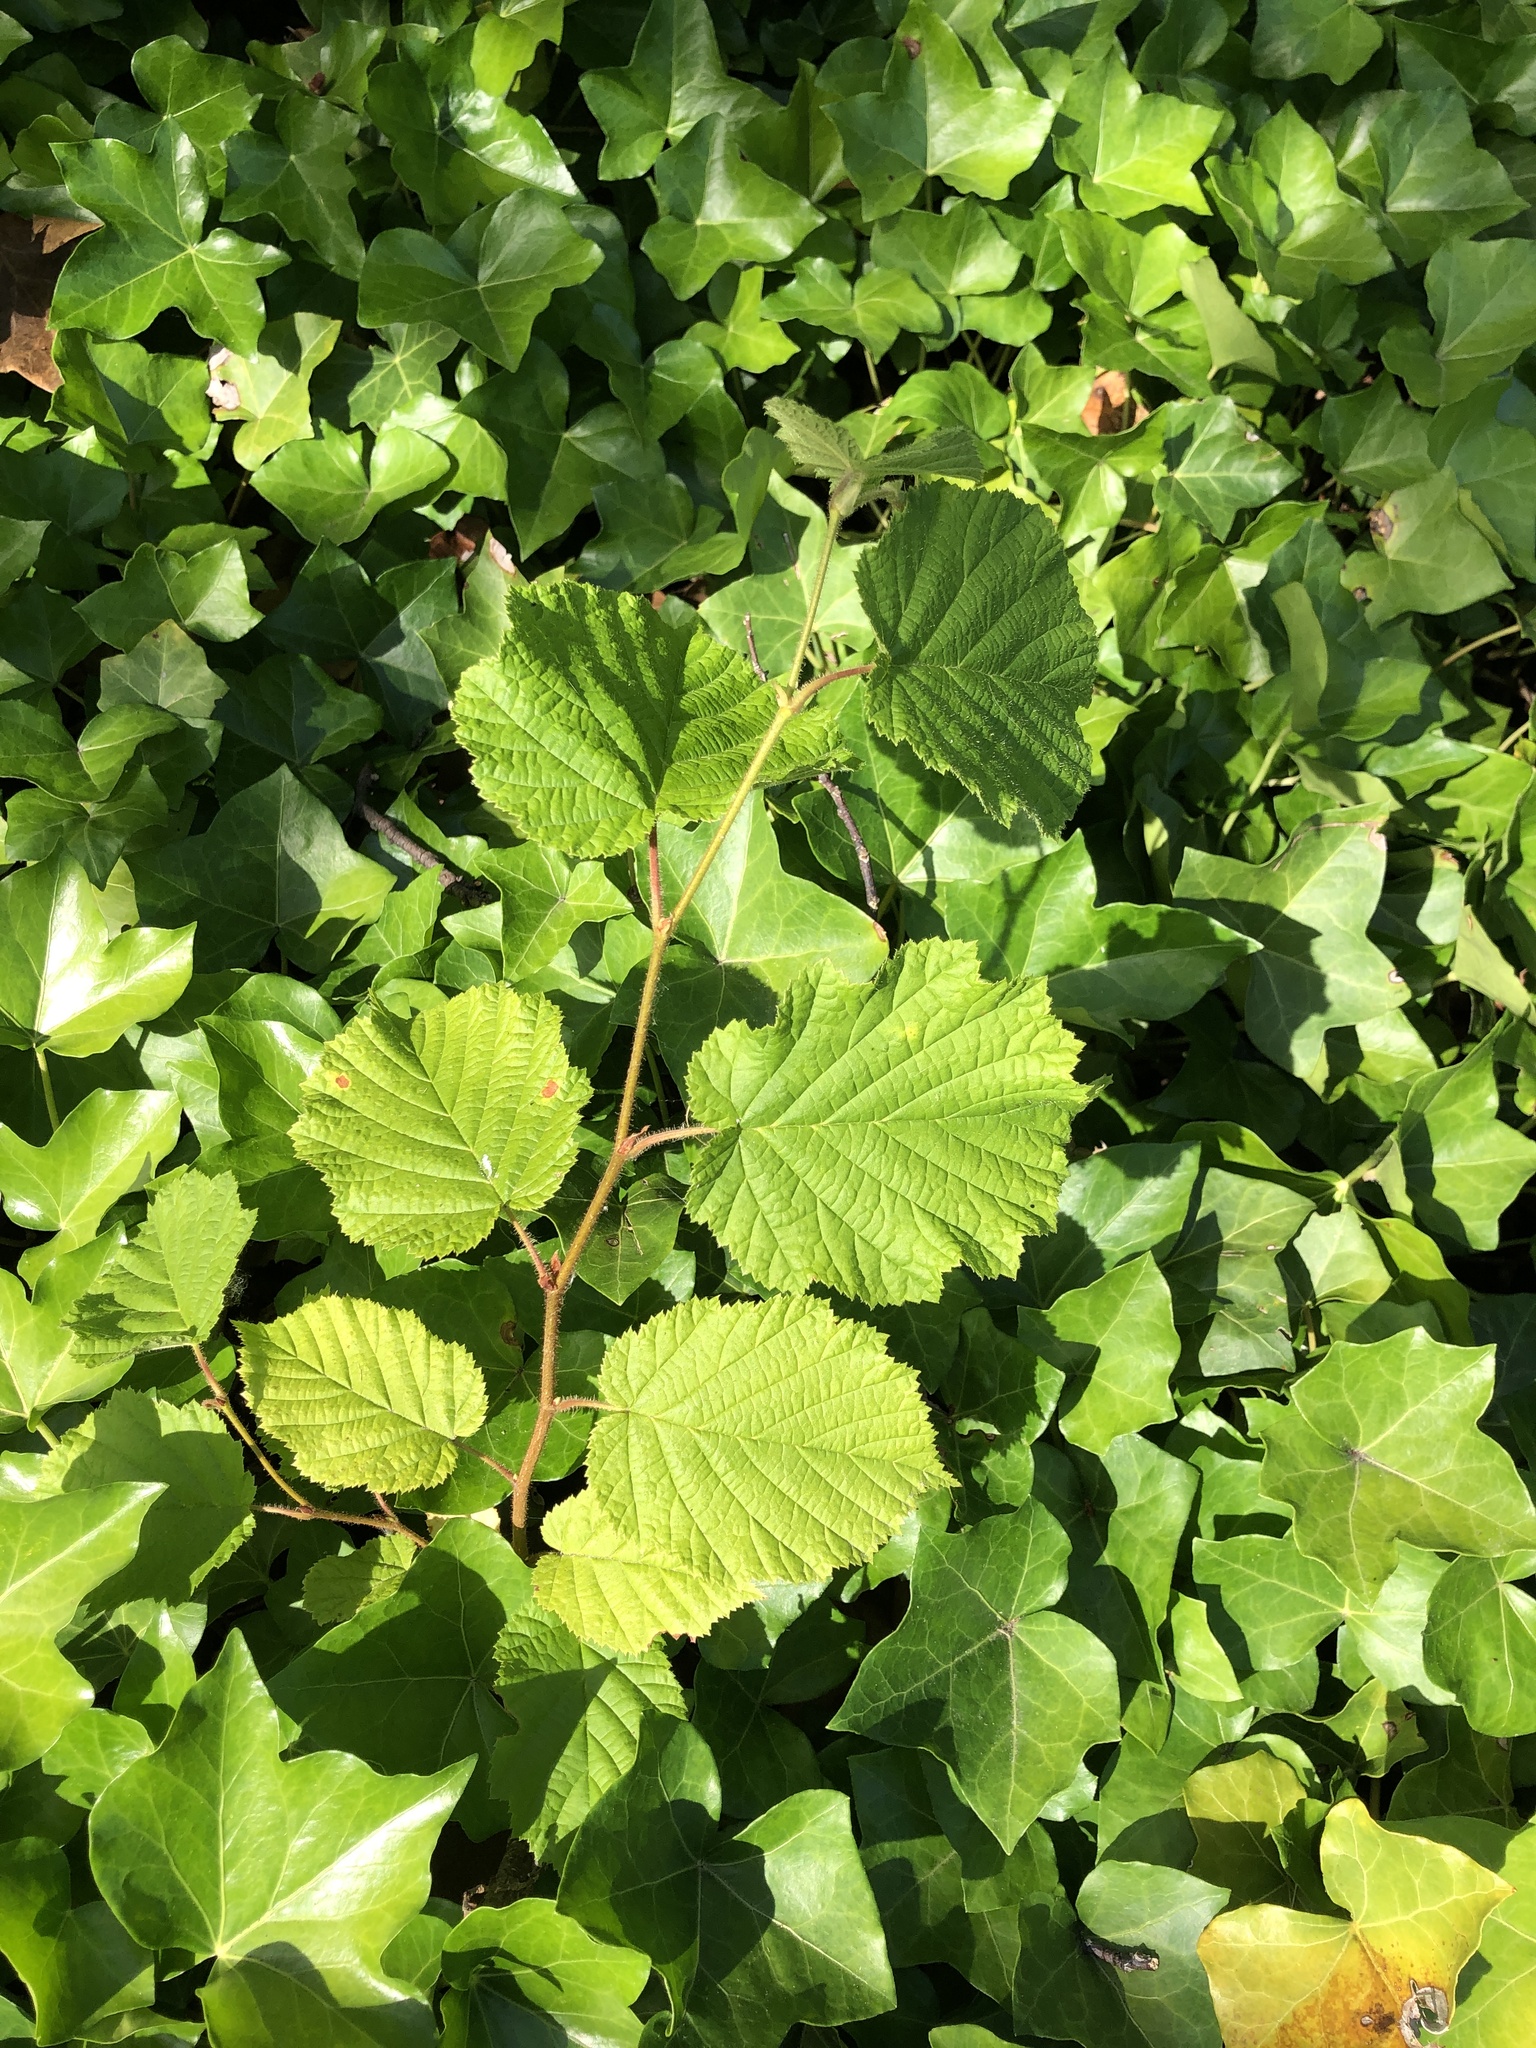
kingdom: Plantae
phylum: Tracheophyta
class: Magnoliopsida
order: Fagales
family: Betulaceae
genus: Corylus
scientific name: Corylus cornuta
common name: Beaked hazel
